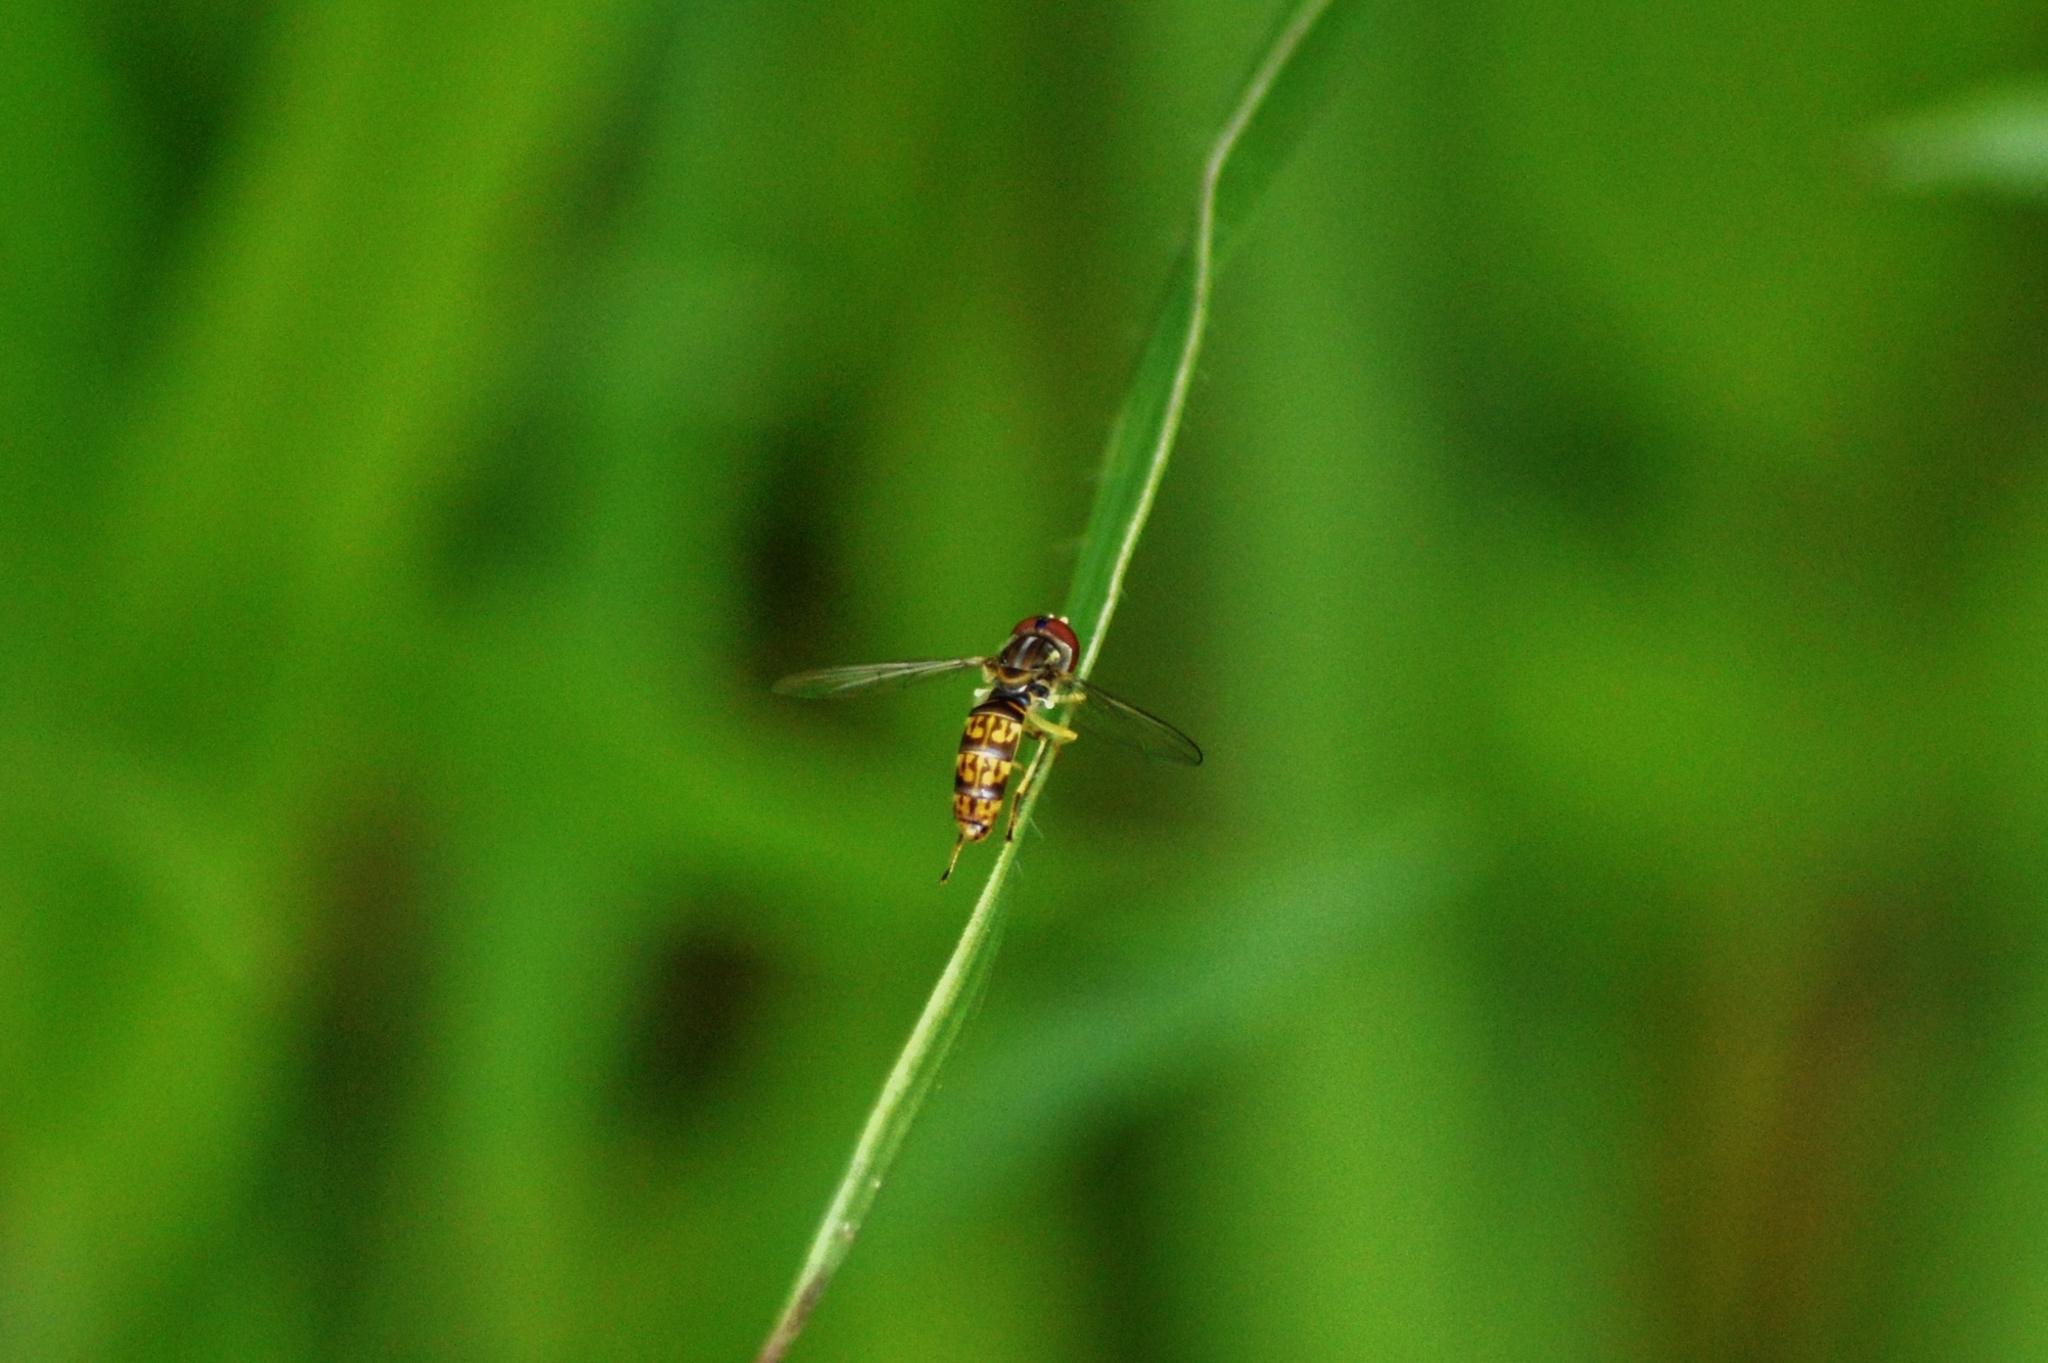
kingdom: Animalia
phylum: Arthropoda
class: Insecta
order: Diptera
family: Syrphidae
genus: Toxomerus
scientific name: Toxomerus
